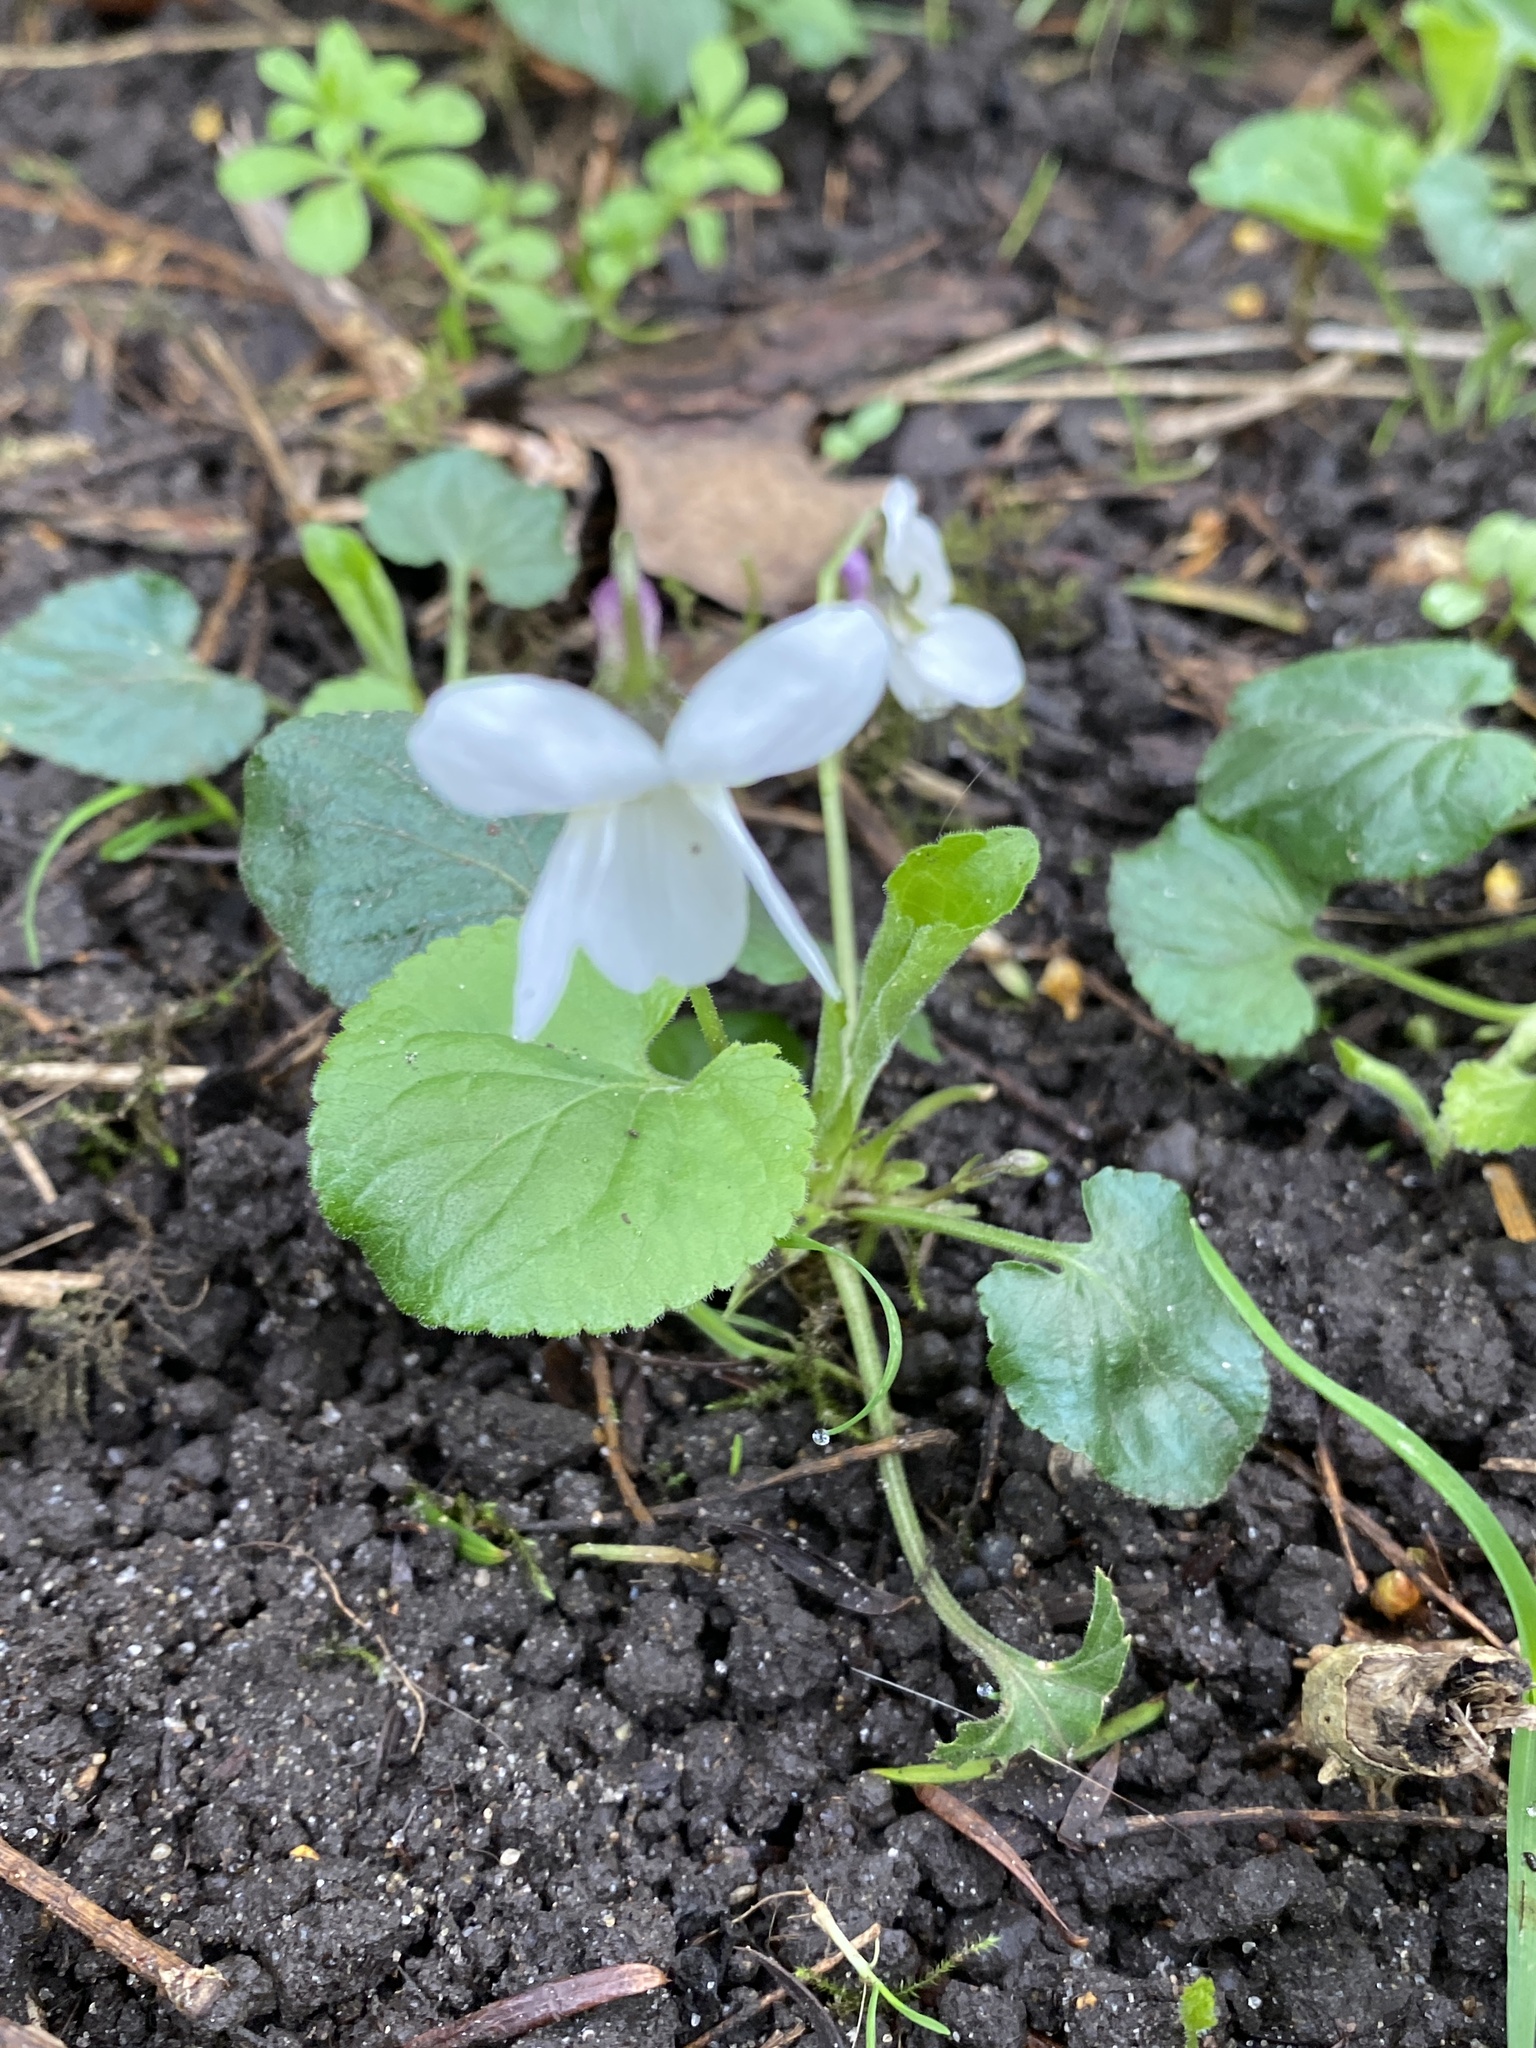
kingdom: Plantae
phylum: Tracheophyta
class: Magnoliopsida
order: Malpighiales
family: Violaceae
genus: Viola
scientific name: Viola odorata
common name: Sweet violet
